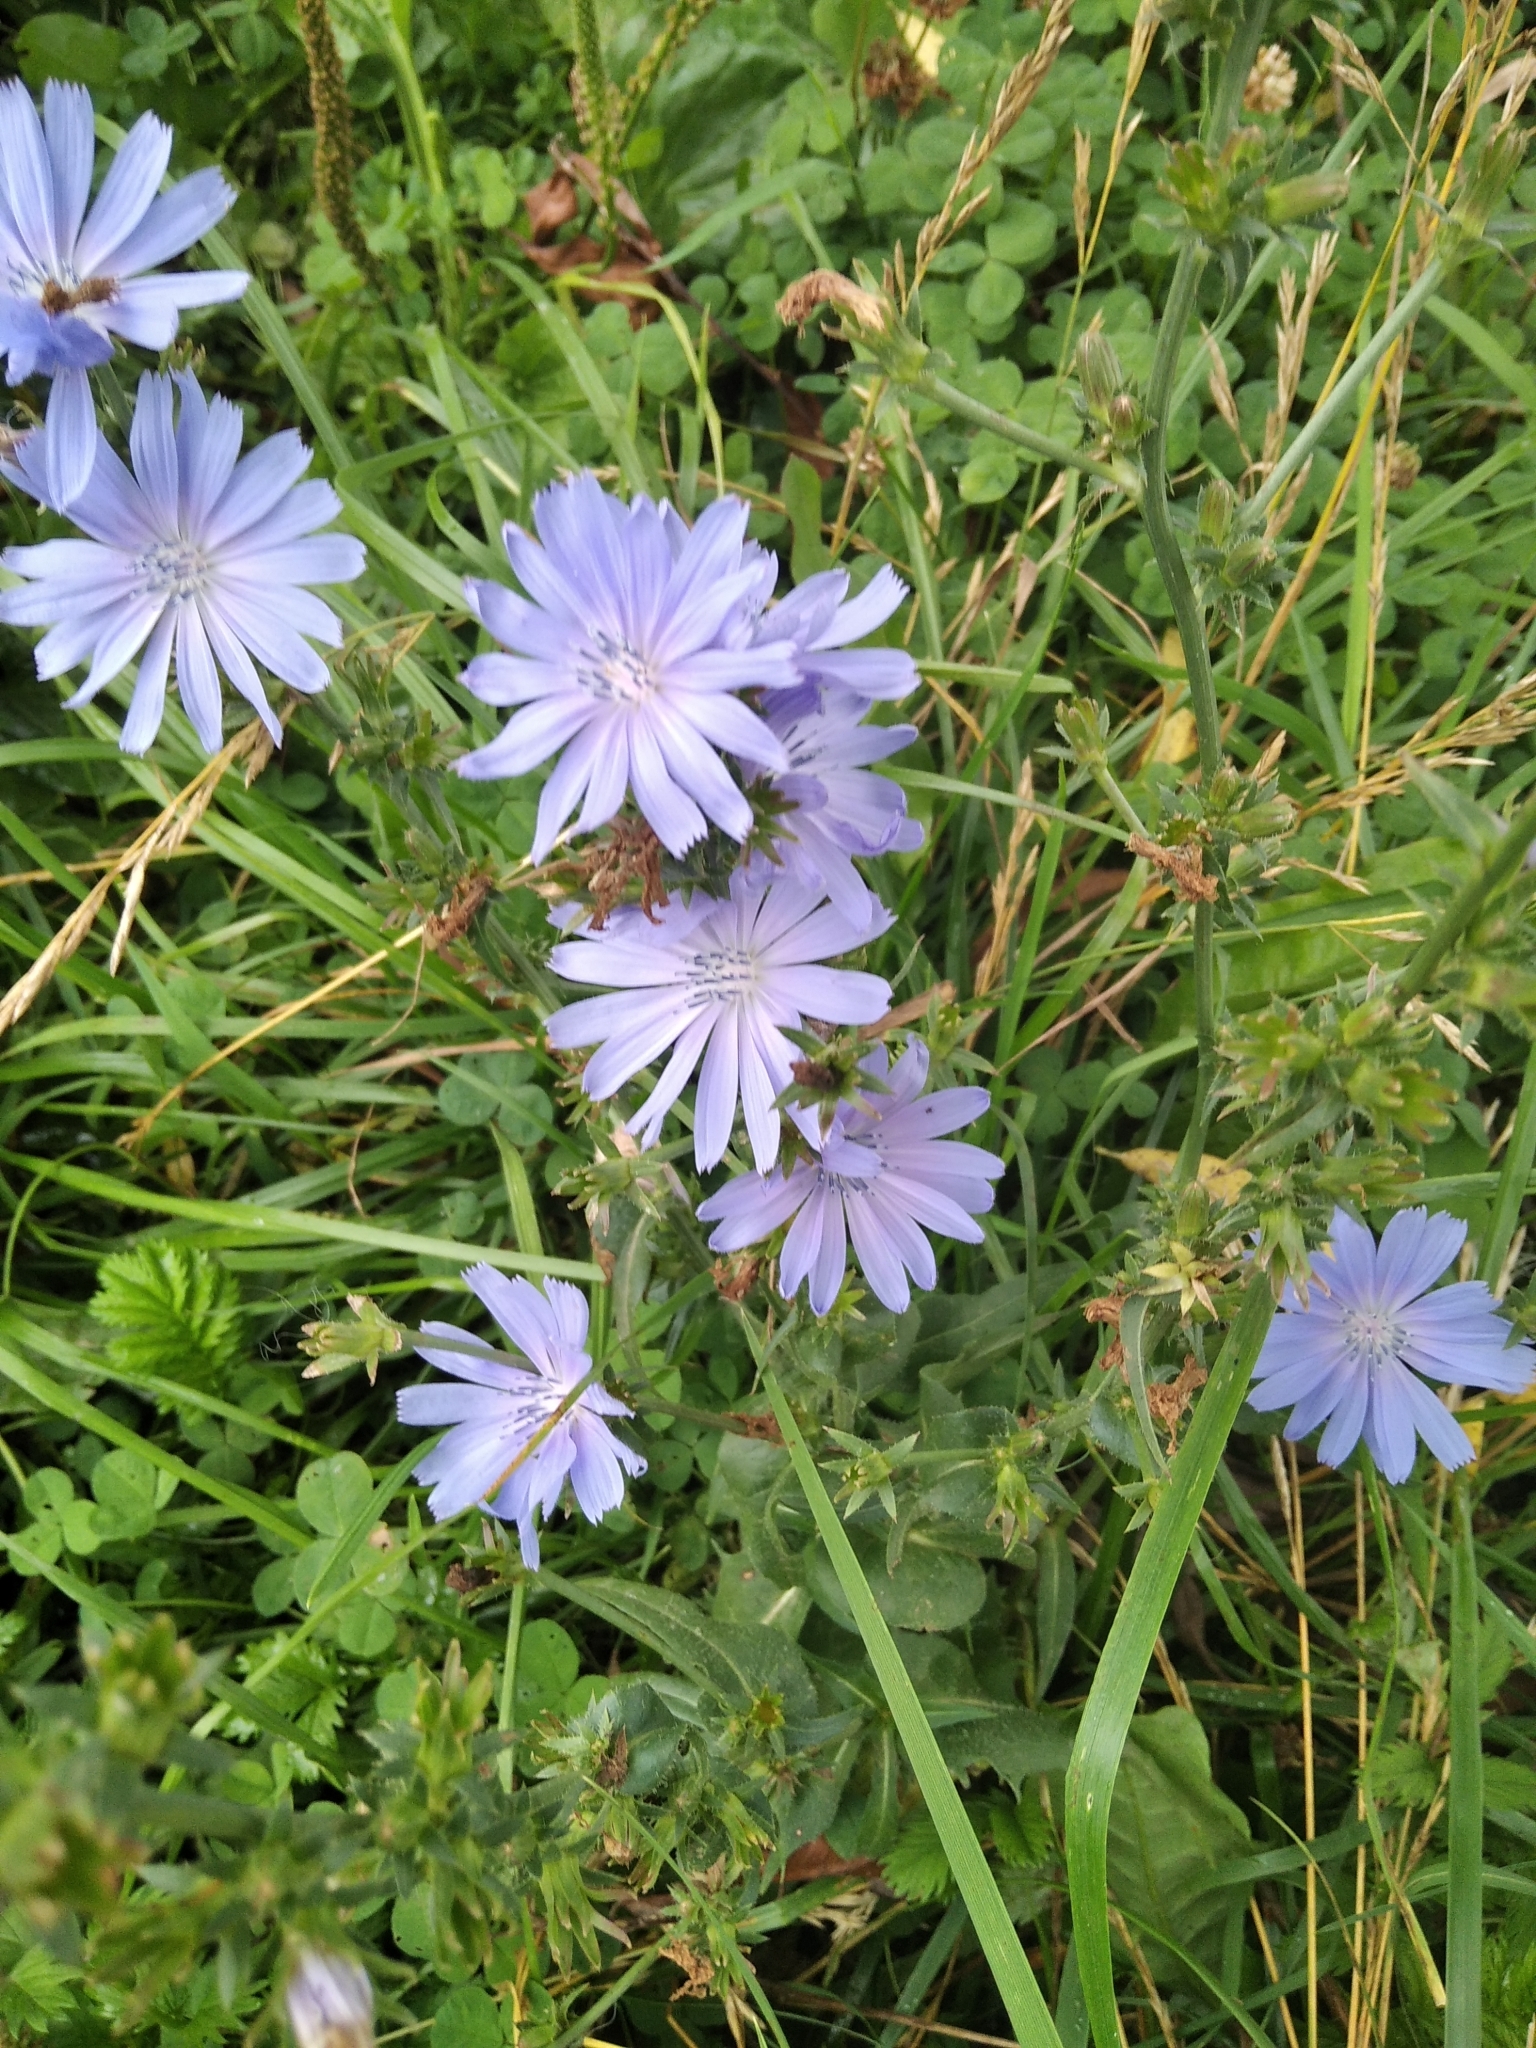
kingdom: Plantae
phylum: Tracheophyta
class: Magnoliopsida
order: Asterales
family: Asteraceae
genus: Cichorium
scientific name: Cichorium intybus
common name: Chicory
